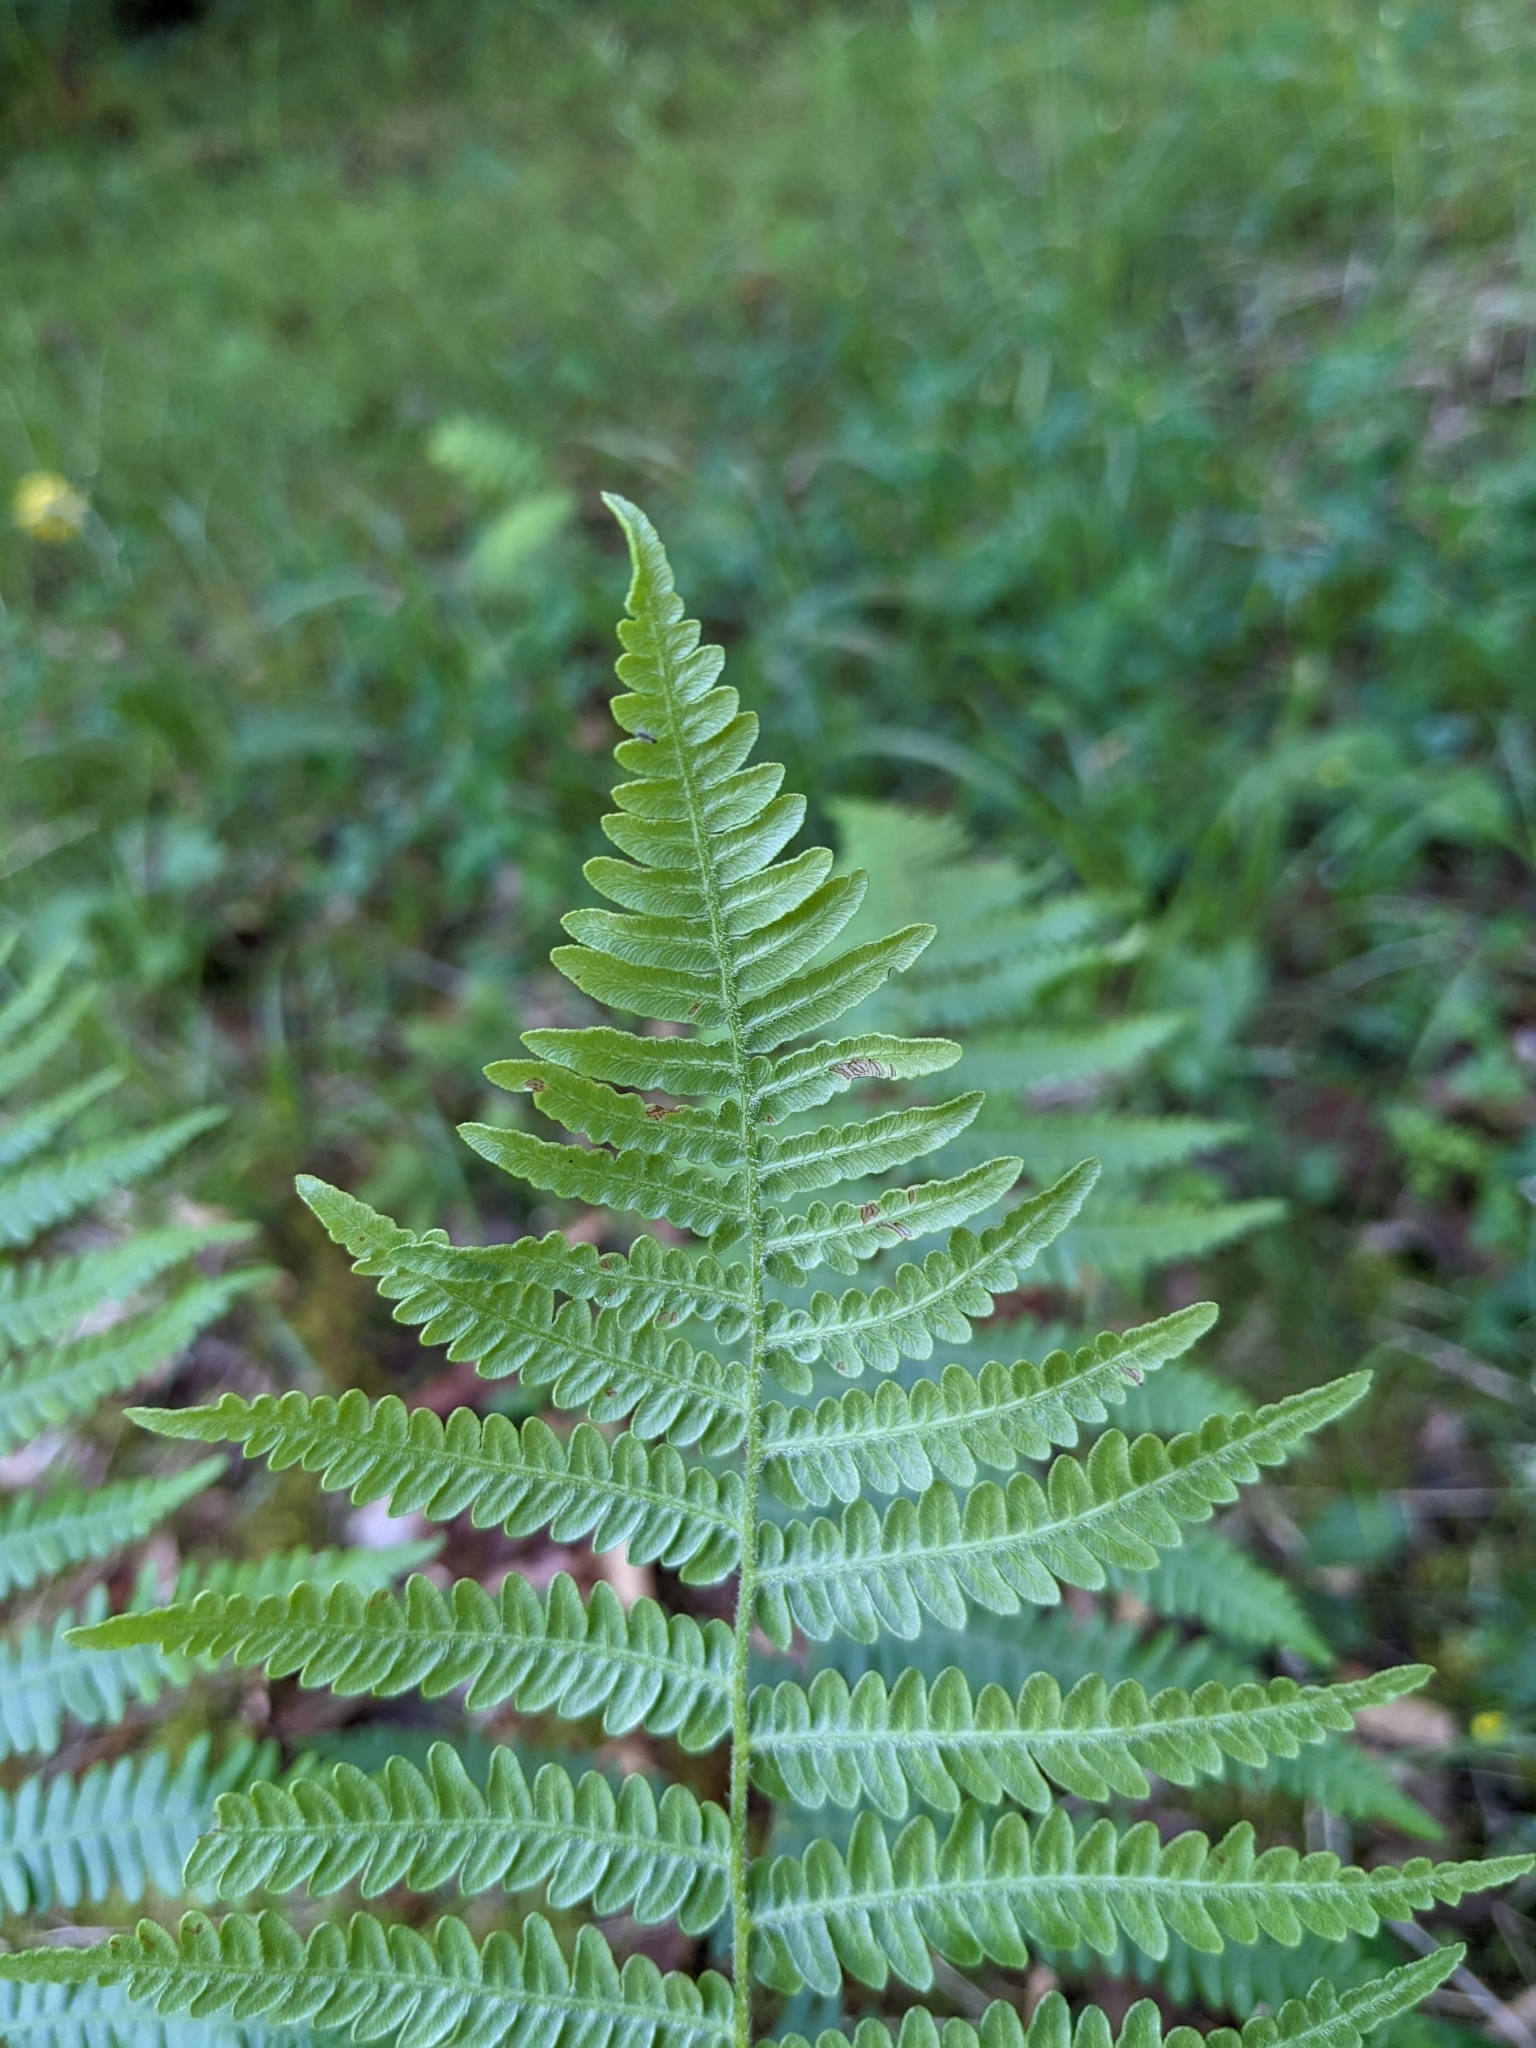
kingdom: Plantae
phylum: Tracheophyta
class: Polypodiopsida
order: Polypodiales
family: Dennstaedtiaceae
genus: Pteridium
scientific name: Pteridium aquilinum
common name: Bracken
